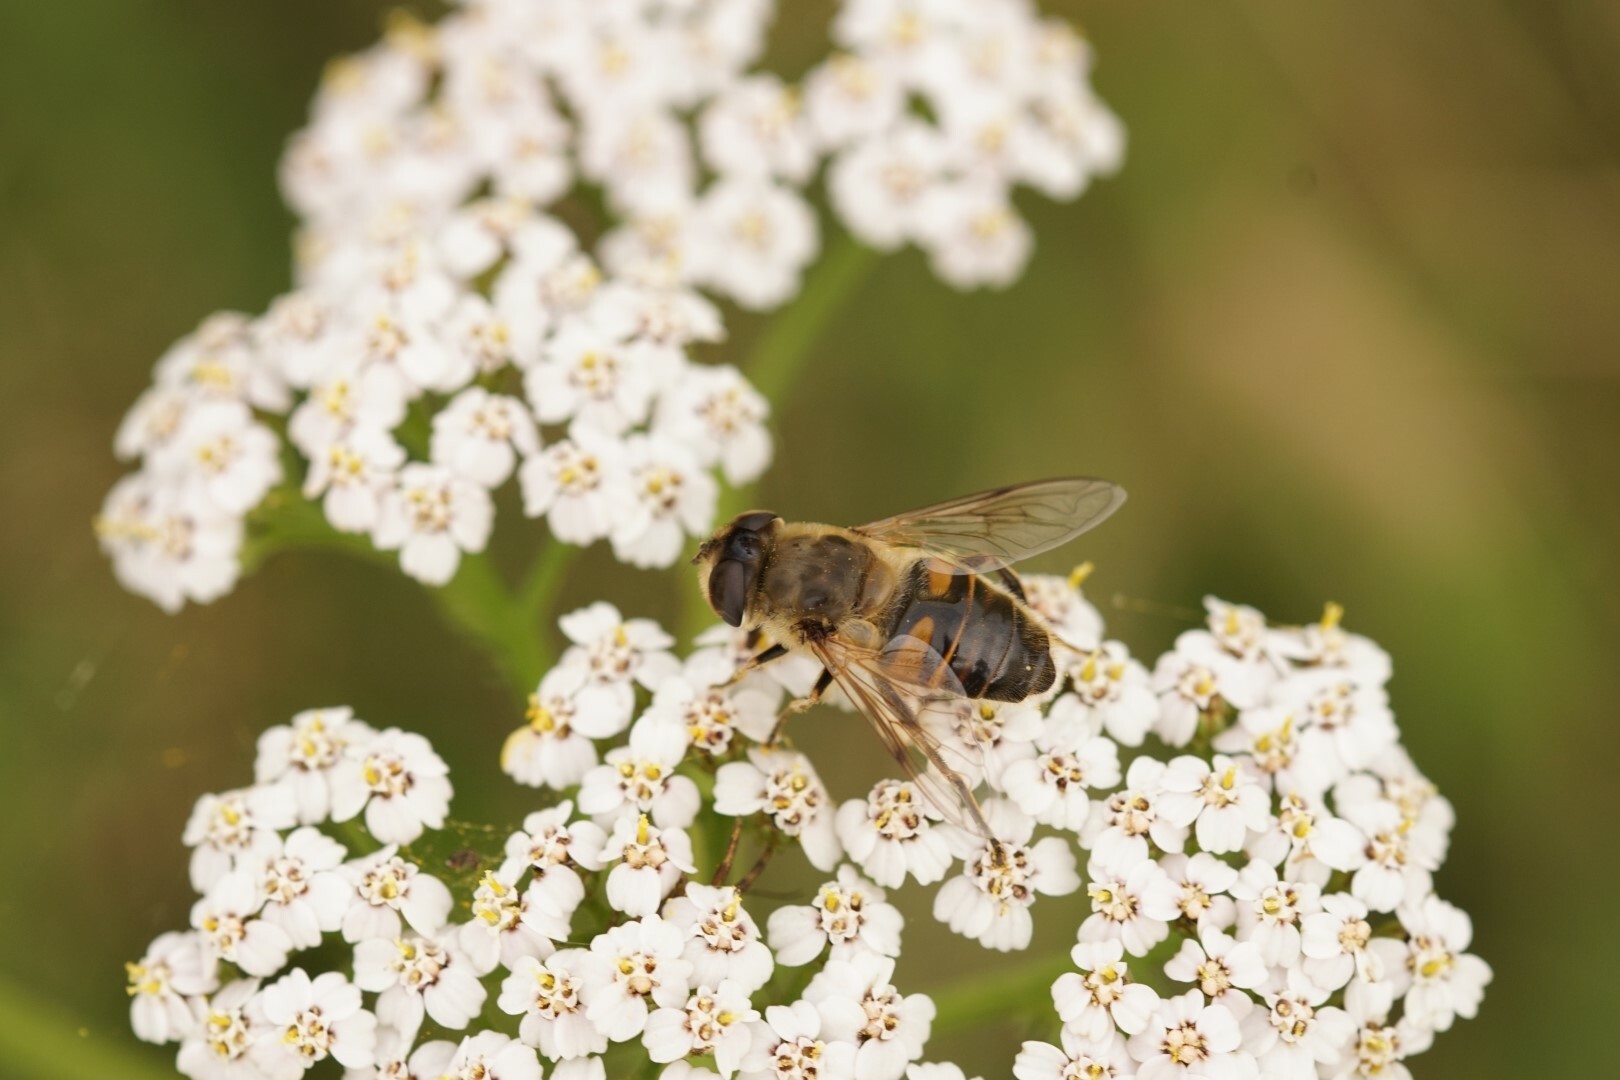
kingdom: Animalia
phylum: Arthropoda
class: Insecta
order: Diptera
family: Syrphidae
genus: Eristalis
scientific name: Eristalis tenax
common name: Drone fly
